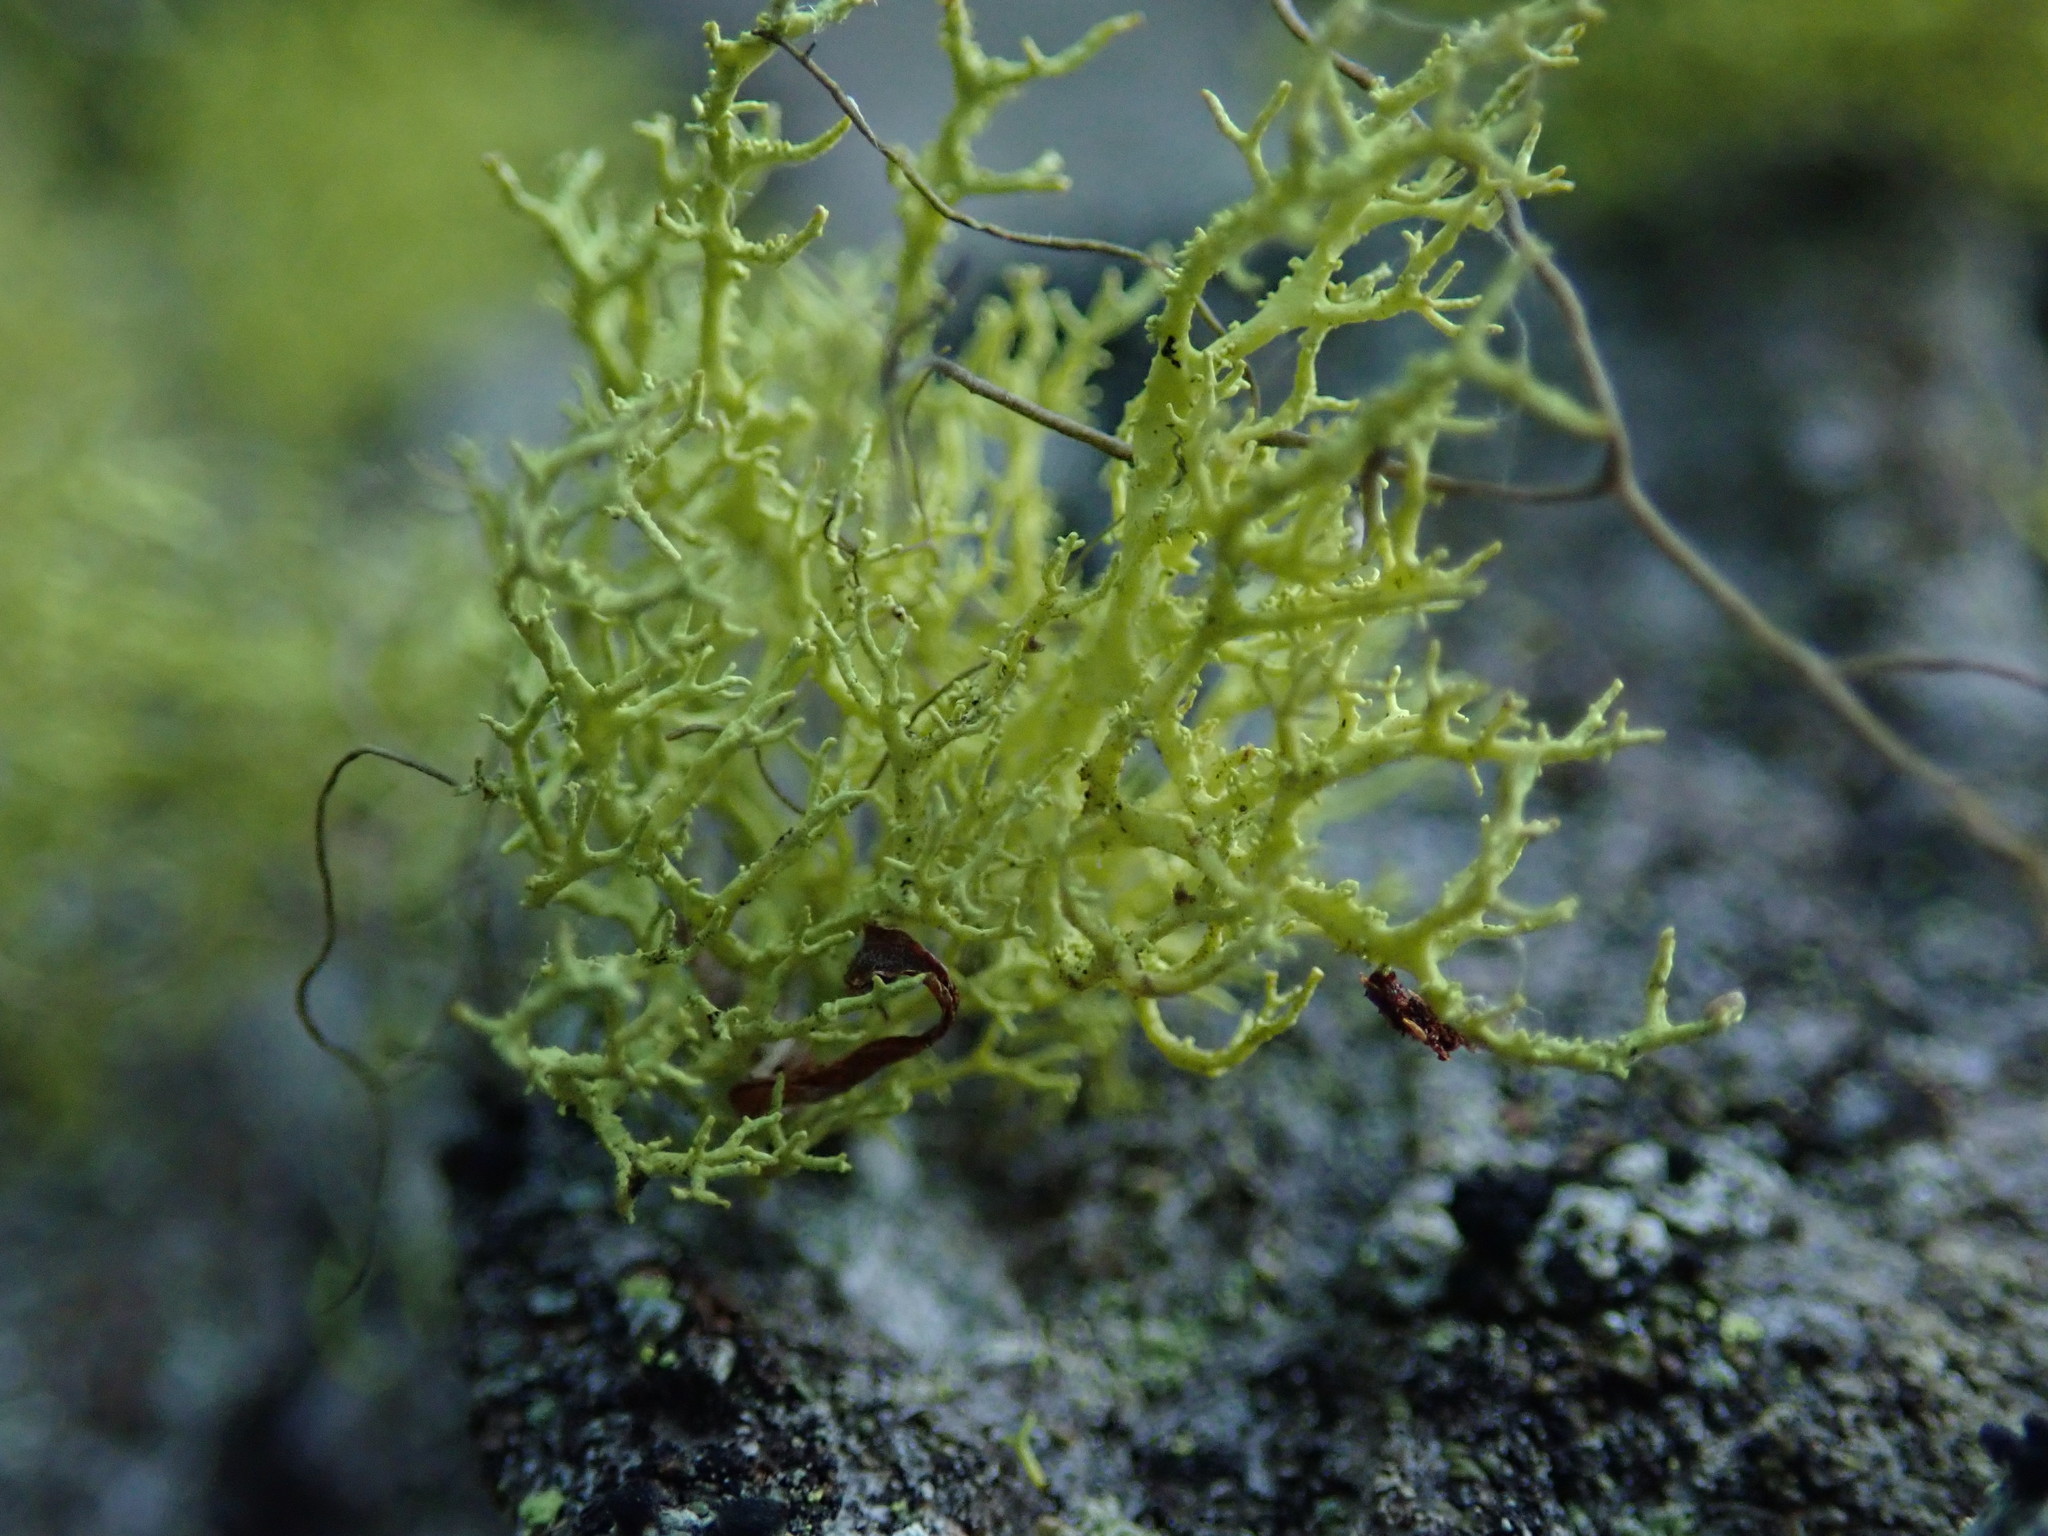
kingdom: Fungi
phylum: Ascomycota
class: Lecanoromycetes
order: Lecanorales
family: Parmeliaceae
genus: Letharia
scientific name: Letharia vulpina
